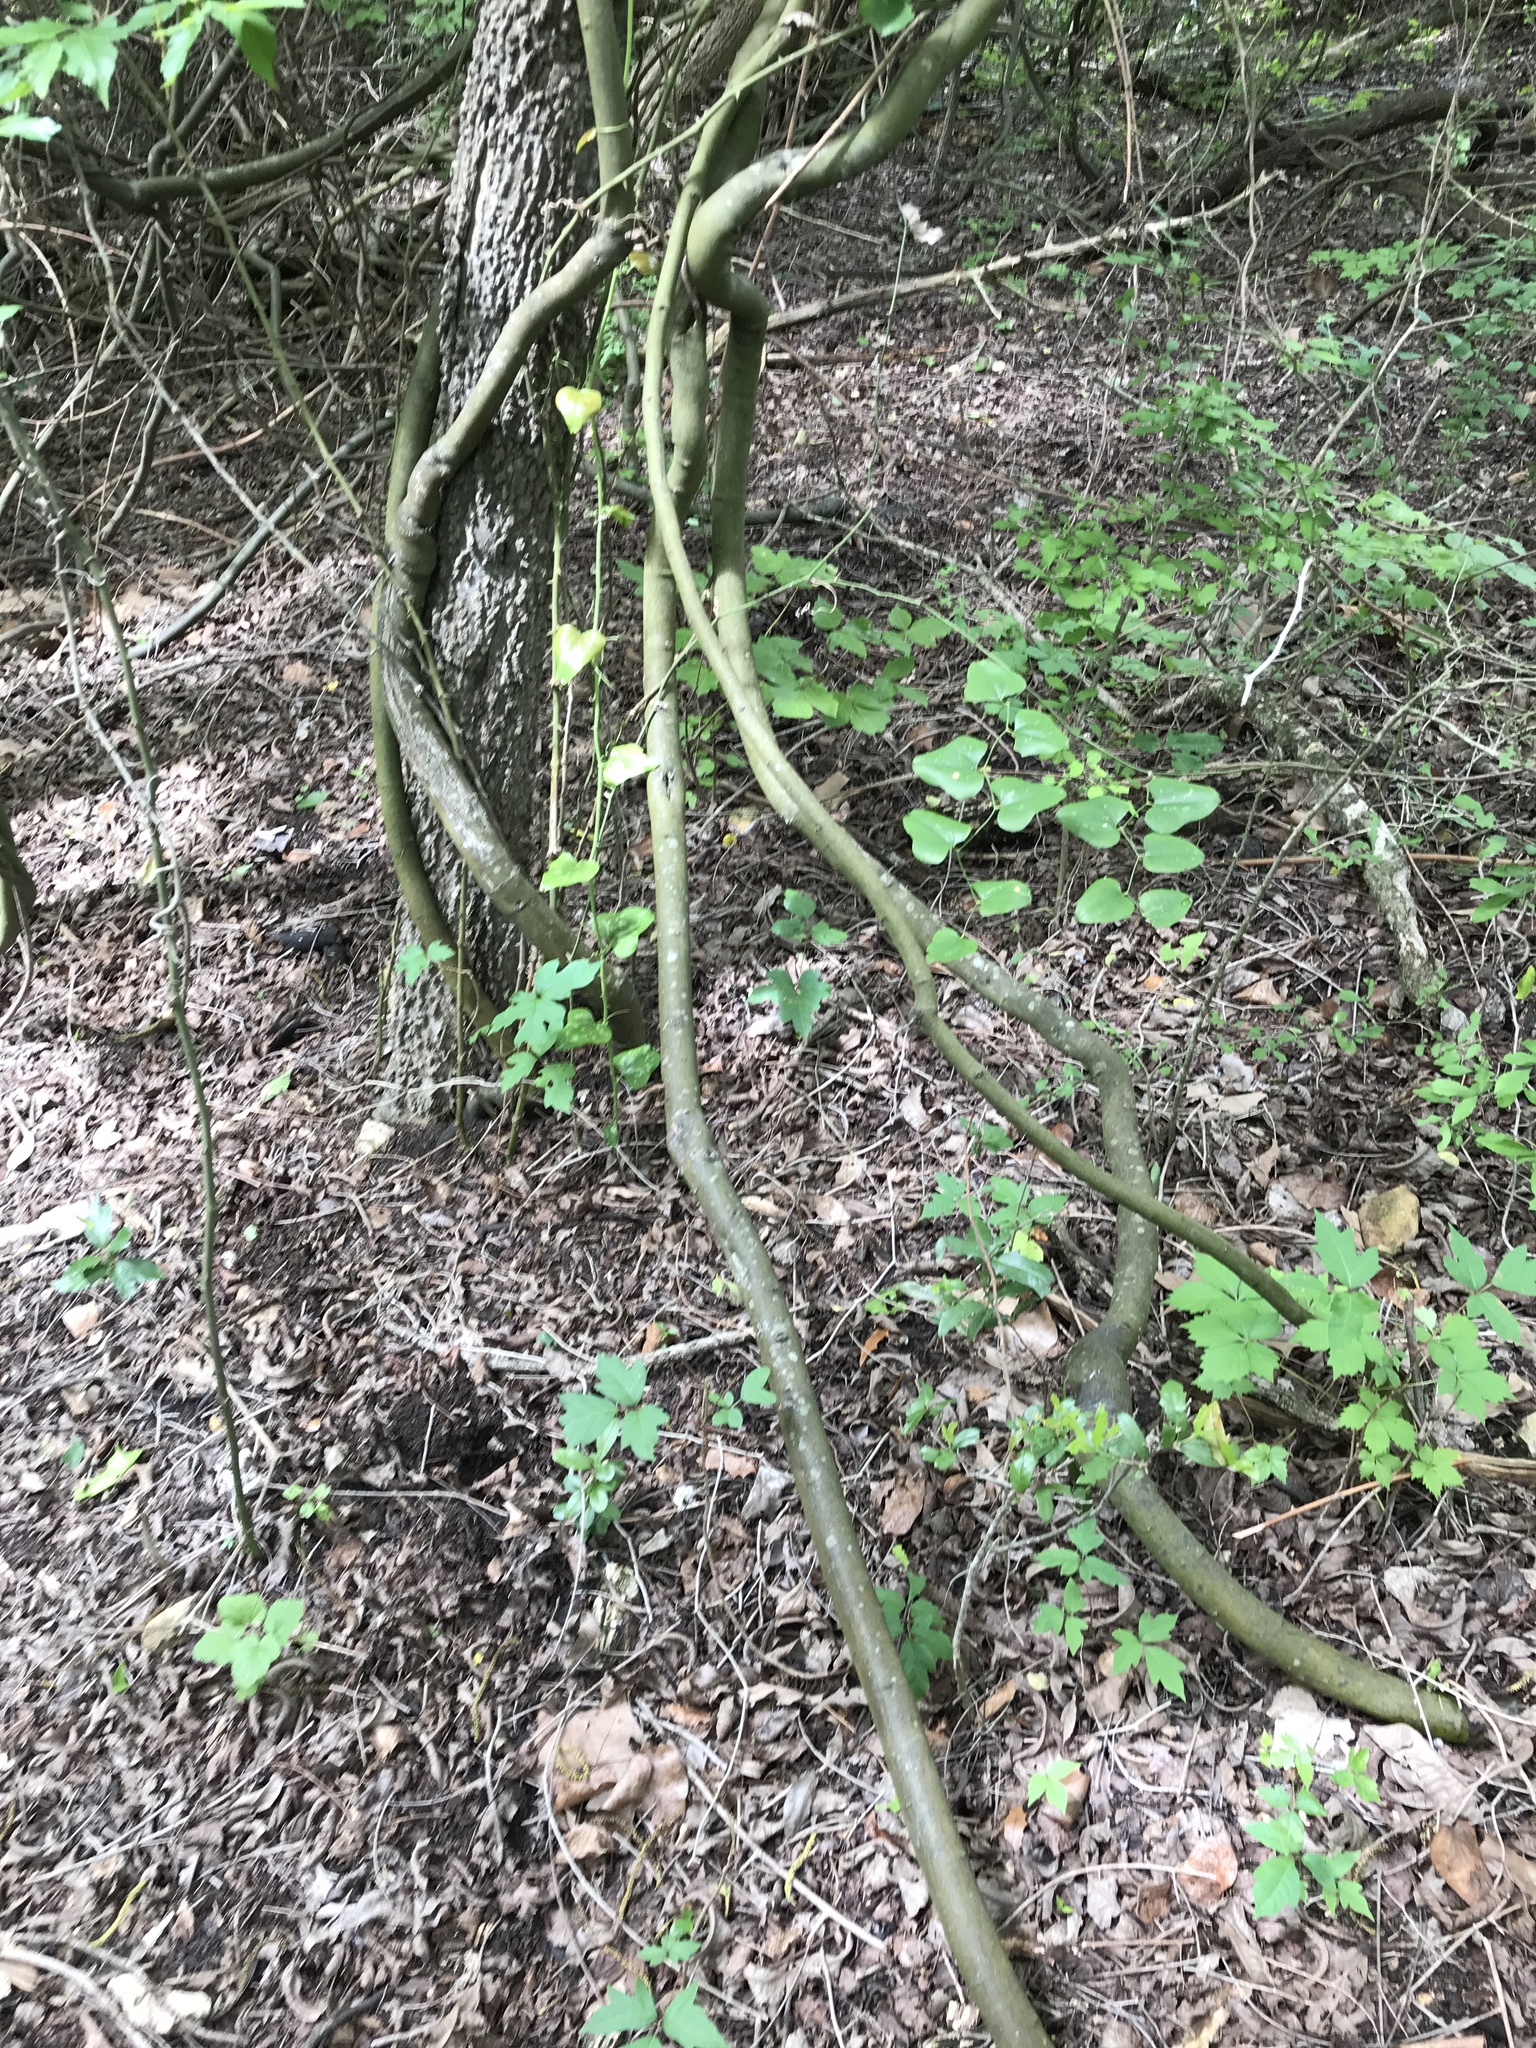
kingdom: Plantae
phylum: Tracheophyta
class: Magnoliopsida
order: Rosales
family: Rhamnaceae
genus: Berchemia
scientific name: Berchemia scandens
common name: Supplejack
